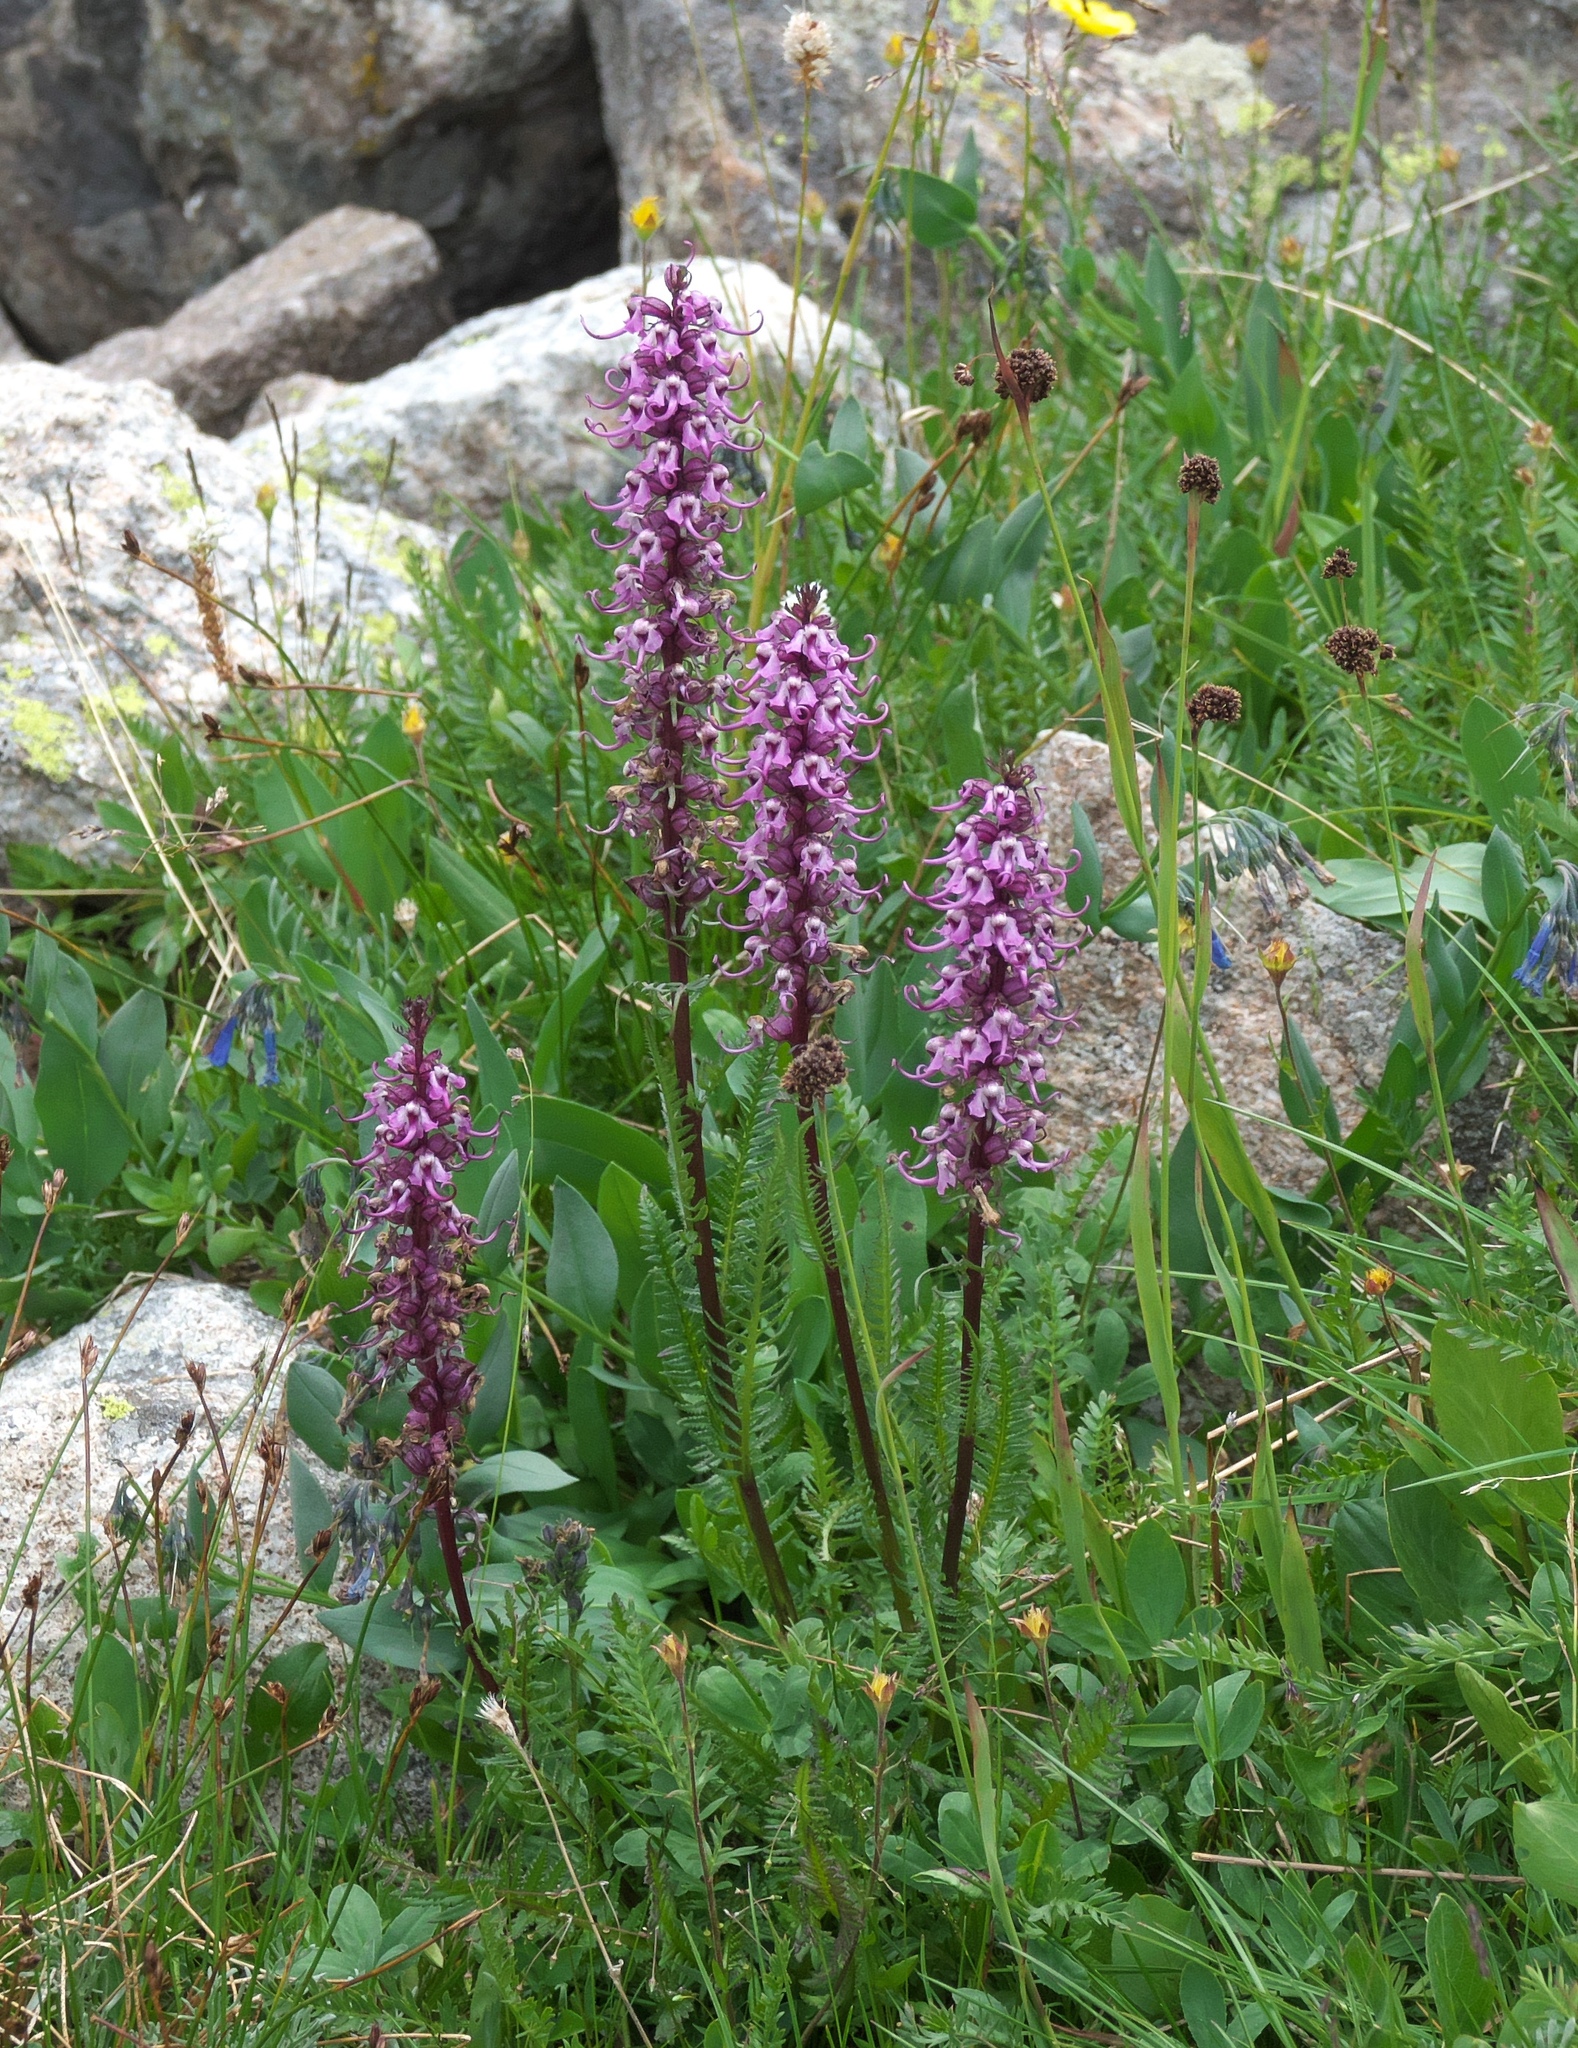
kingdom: Plantae
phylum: Tracheophyta
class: Magnoliopsida
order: Lamiales
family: Orobanchaceae
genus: Pedicularis
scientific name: Pedicularis groenlandica
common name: Elephant's-head
